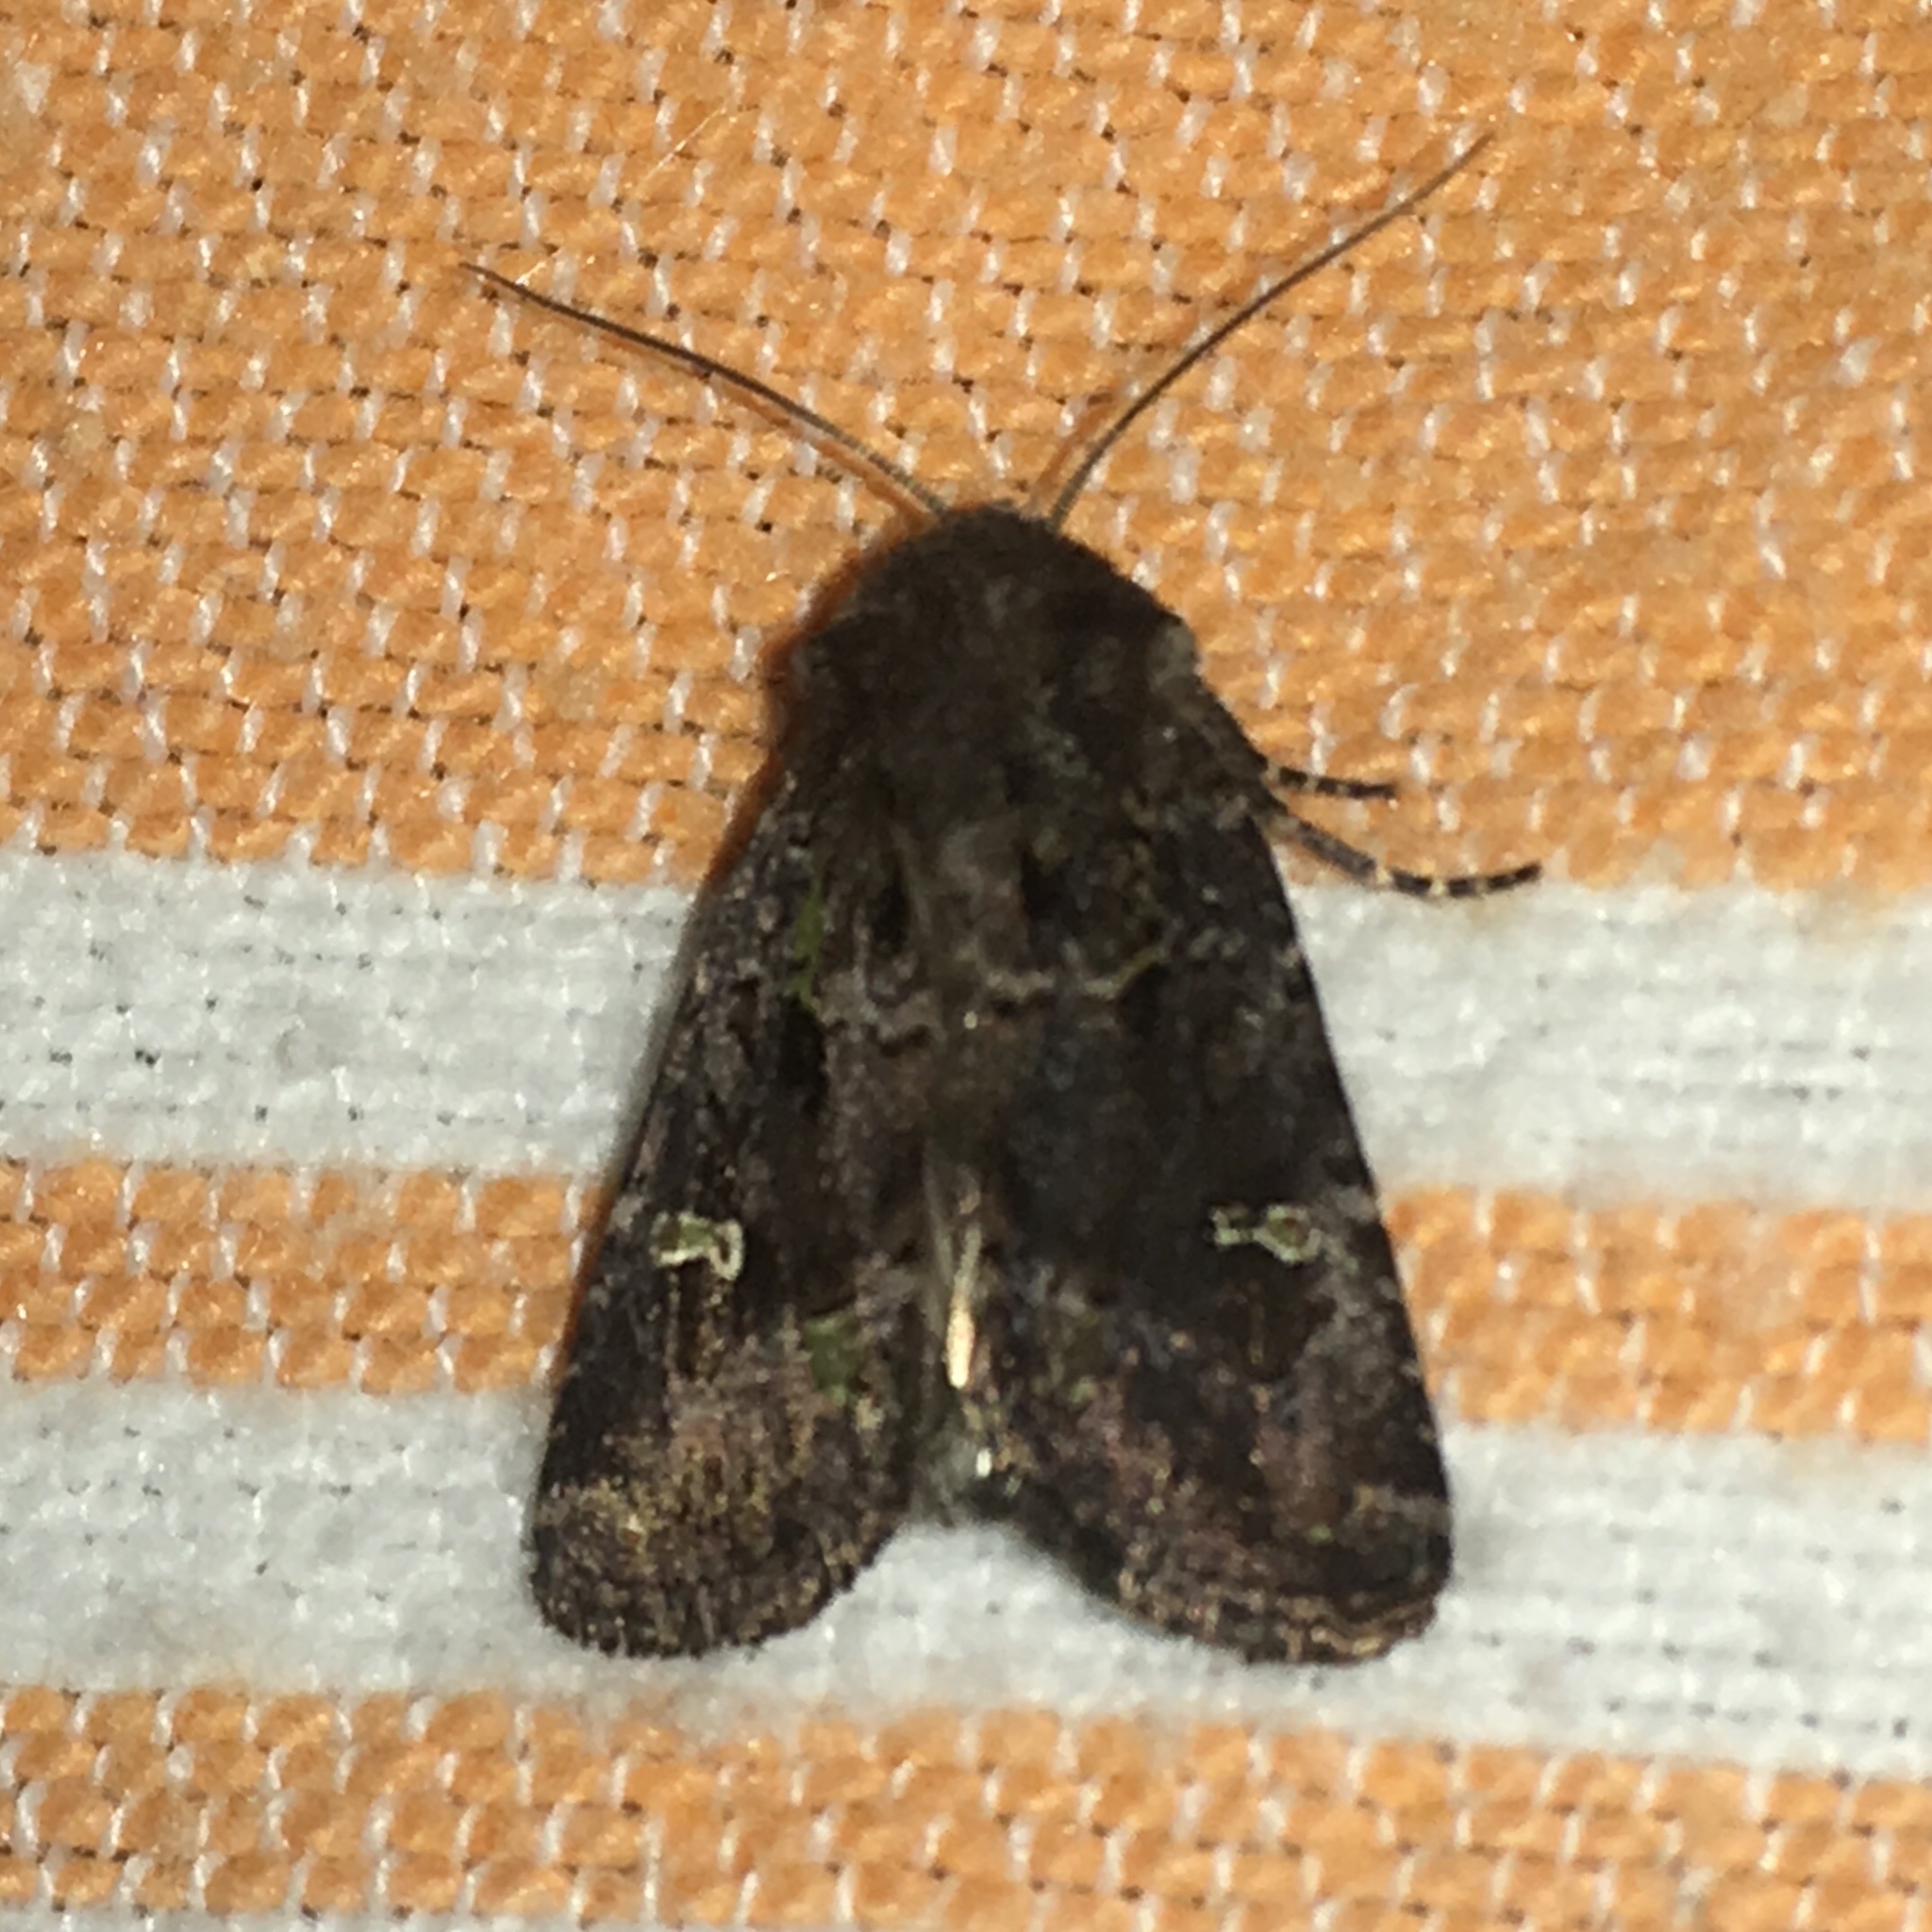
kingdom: Animalia
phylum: Arthropoda
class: Insecta
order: Lepidoptera
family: Noctuidae
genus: Lacinipolia
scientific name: Lacinipolia renigera
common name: Kidney-spotted minor
